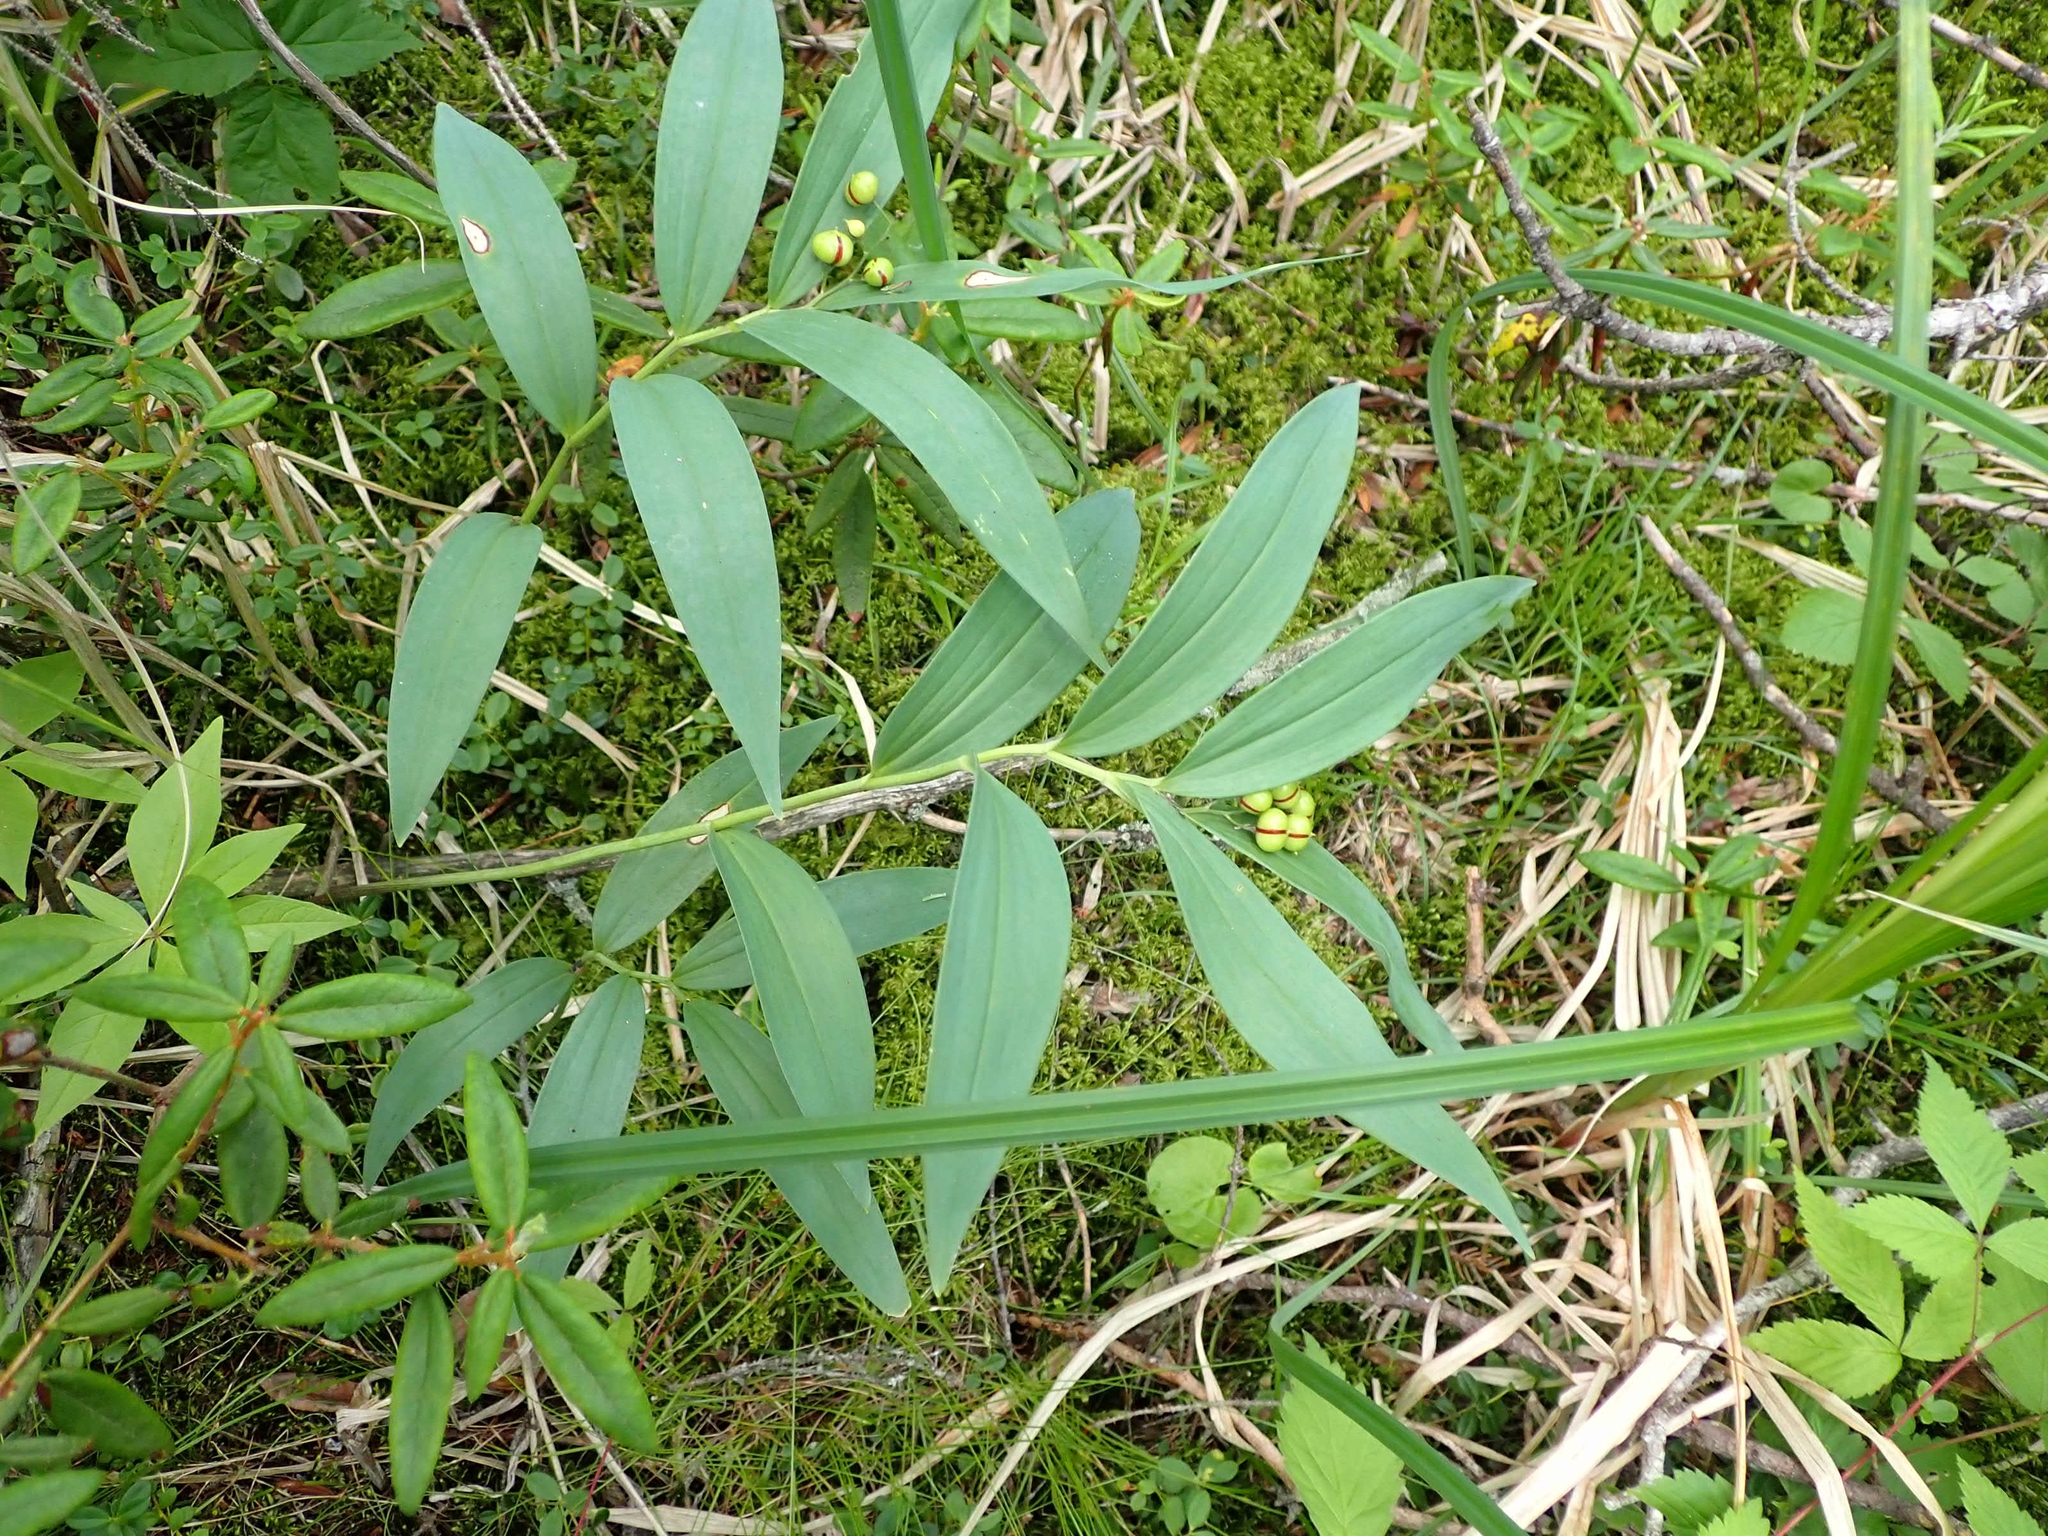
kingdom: Plantae
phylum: Tracheophyta
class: Liliopsida
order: Asparagales
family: Asparagaceae
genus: Maianthemum
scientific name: Maianthemum stellatum
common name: Little false solomon's seal
